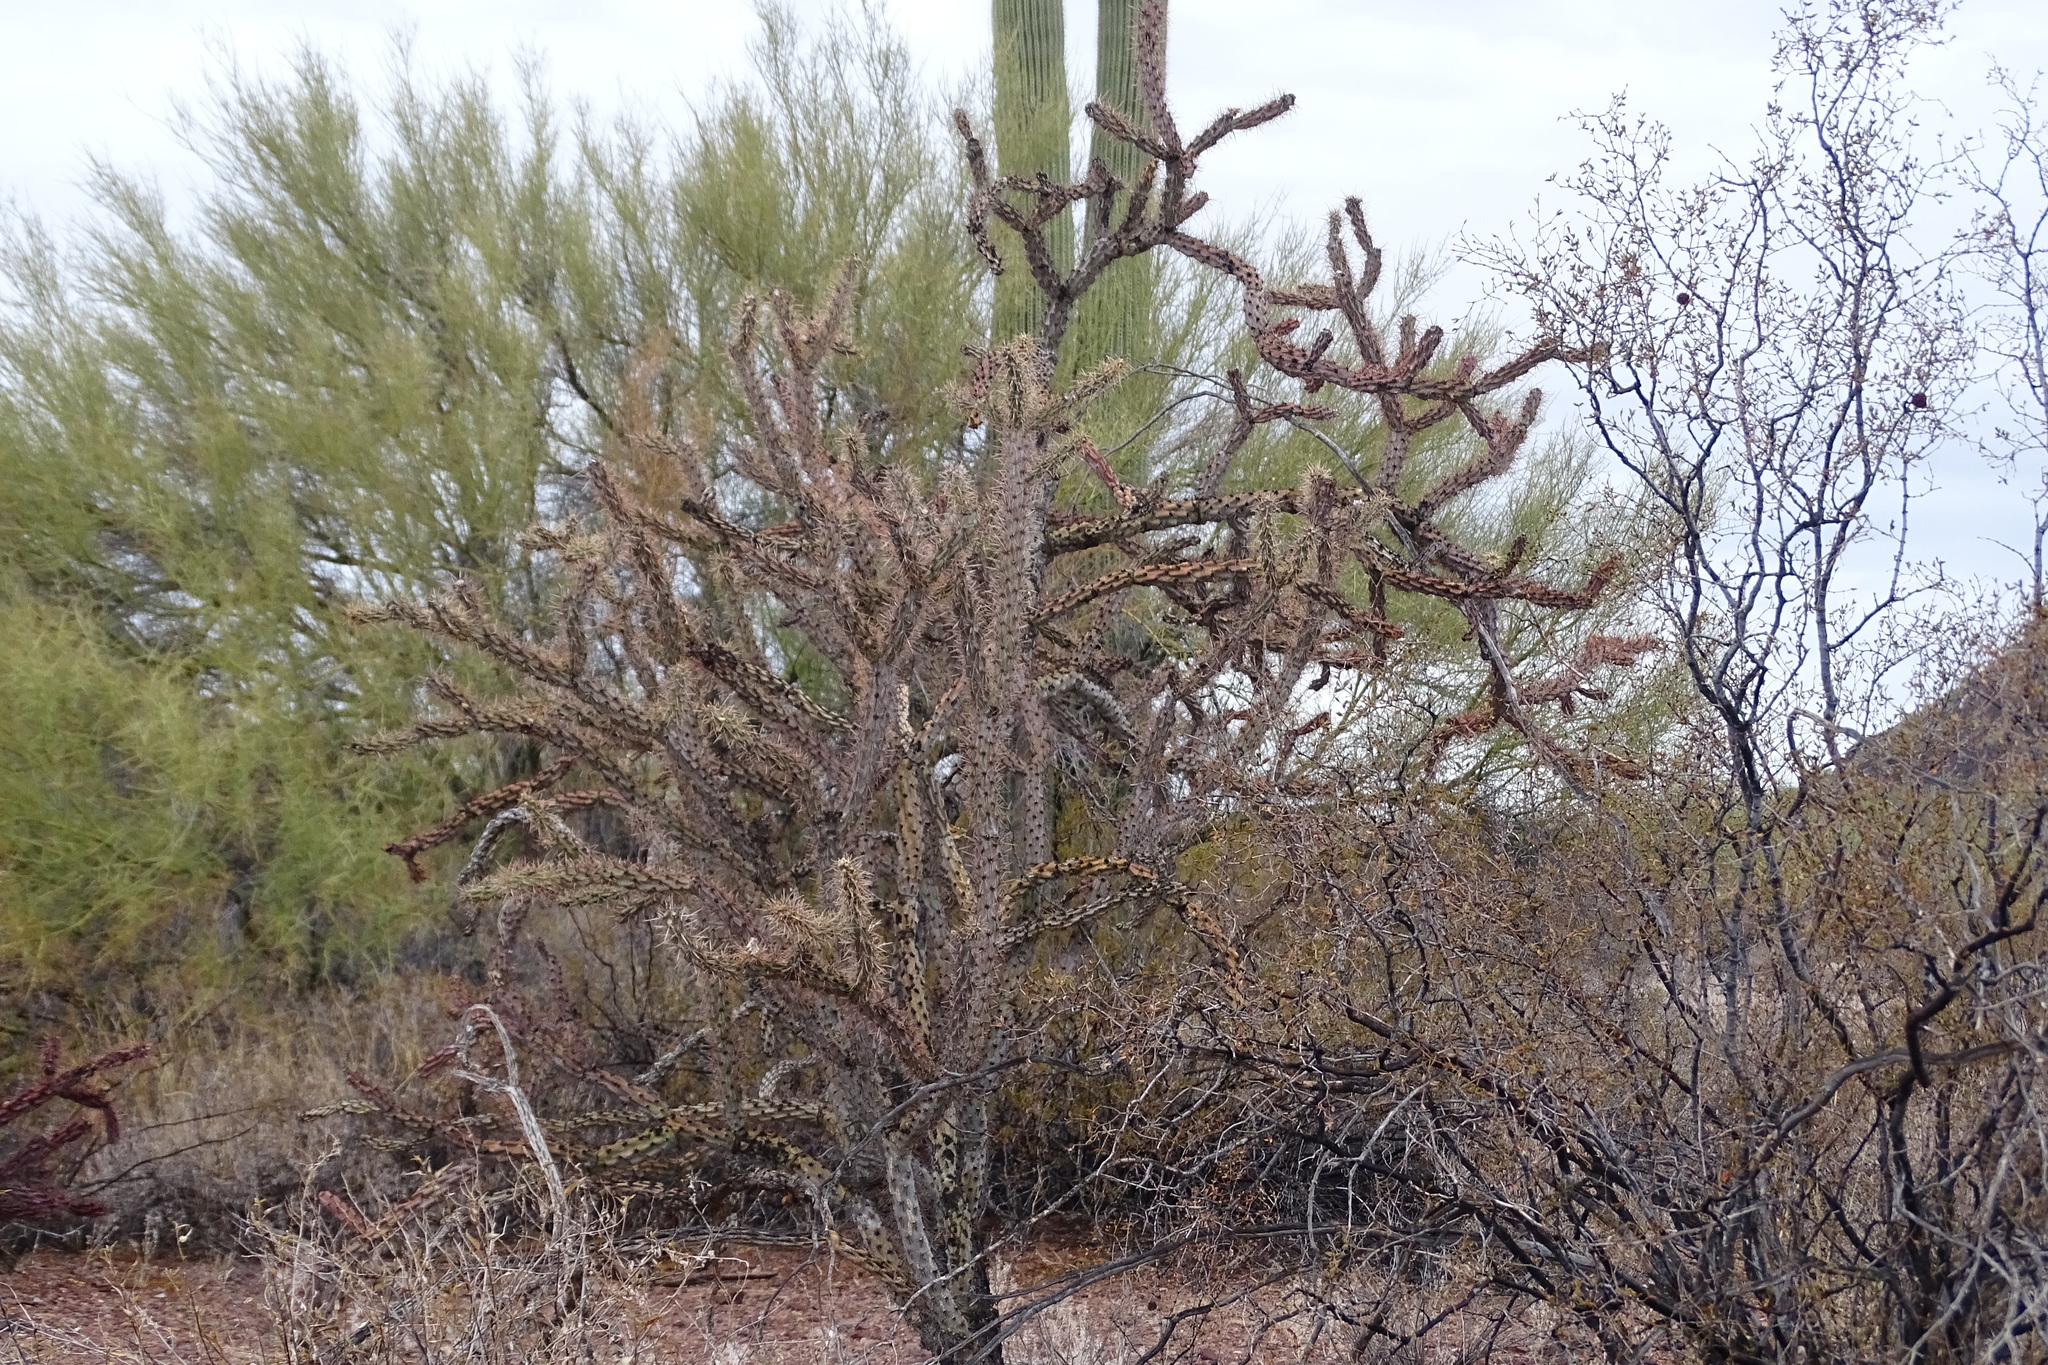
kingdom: Plantae
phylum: Tracheophyta
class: Magnoliopsida
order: Caryophyllales
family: Cactaceae
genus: Cylindropuntia
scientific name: Cylindropuntia acanthocarpa
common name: Buckhorn cholla
